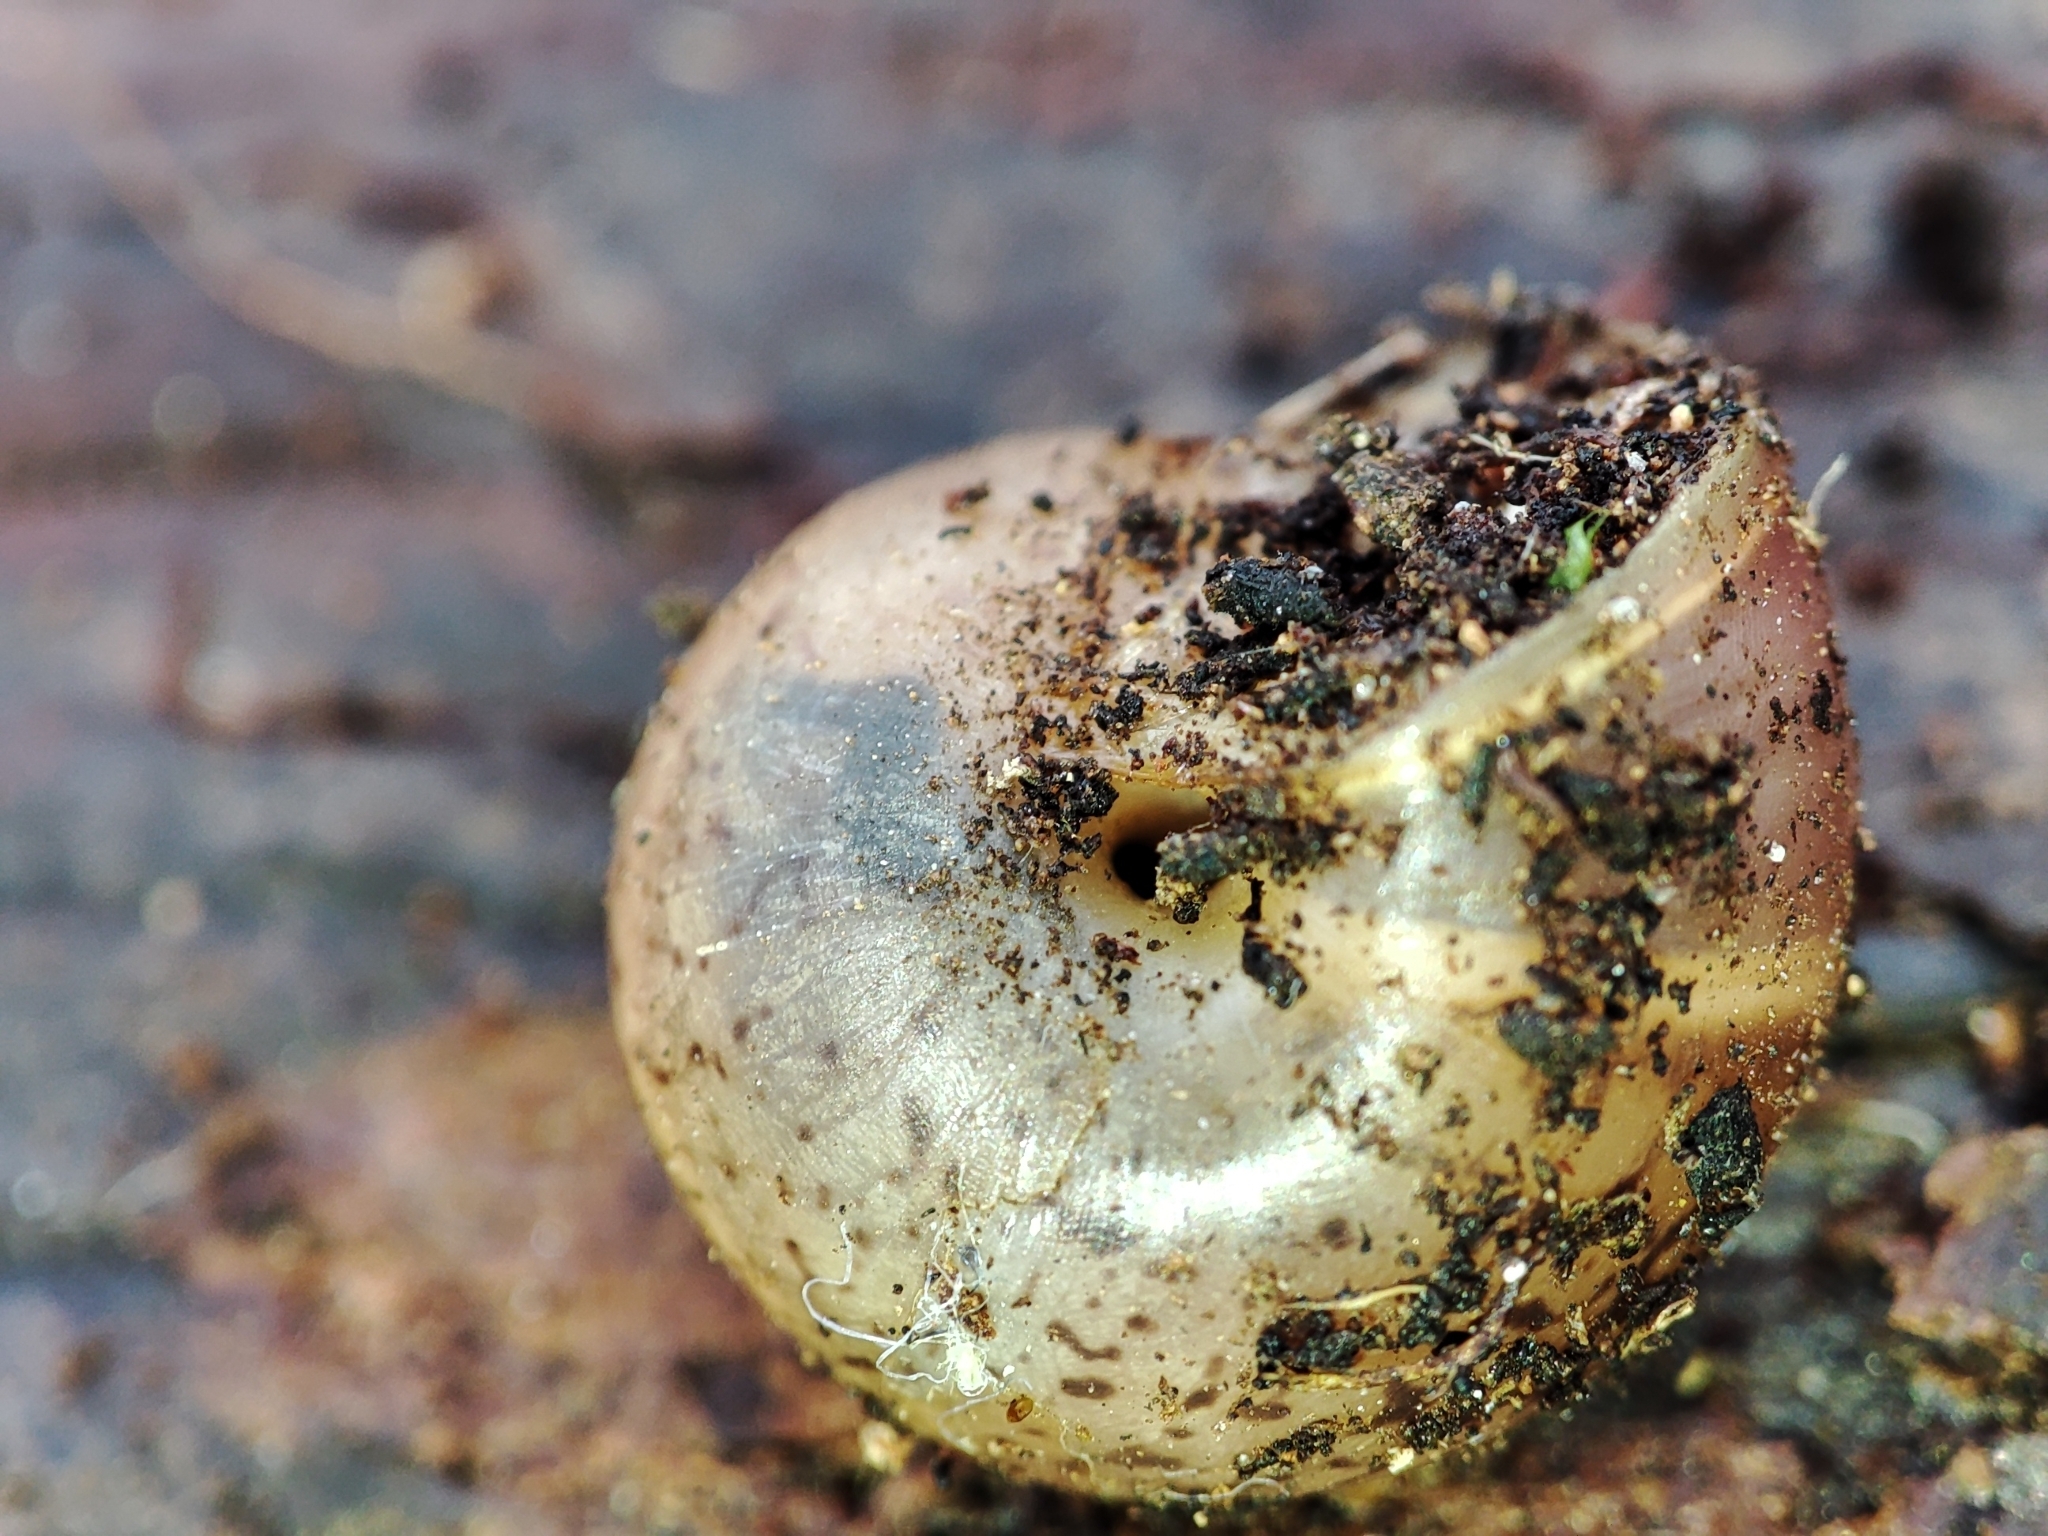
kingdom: Animalia
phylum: Mollusca
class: Gastropoda
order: Stylommatophora
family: Camaenidae
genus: Fruticicola
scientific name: Fruticicola fruticum
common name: Bush snail
